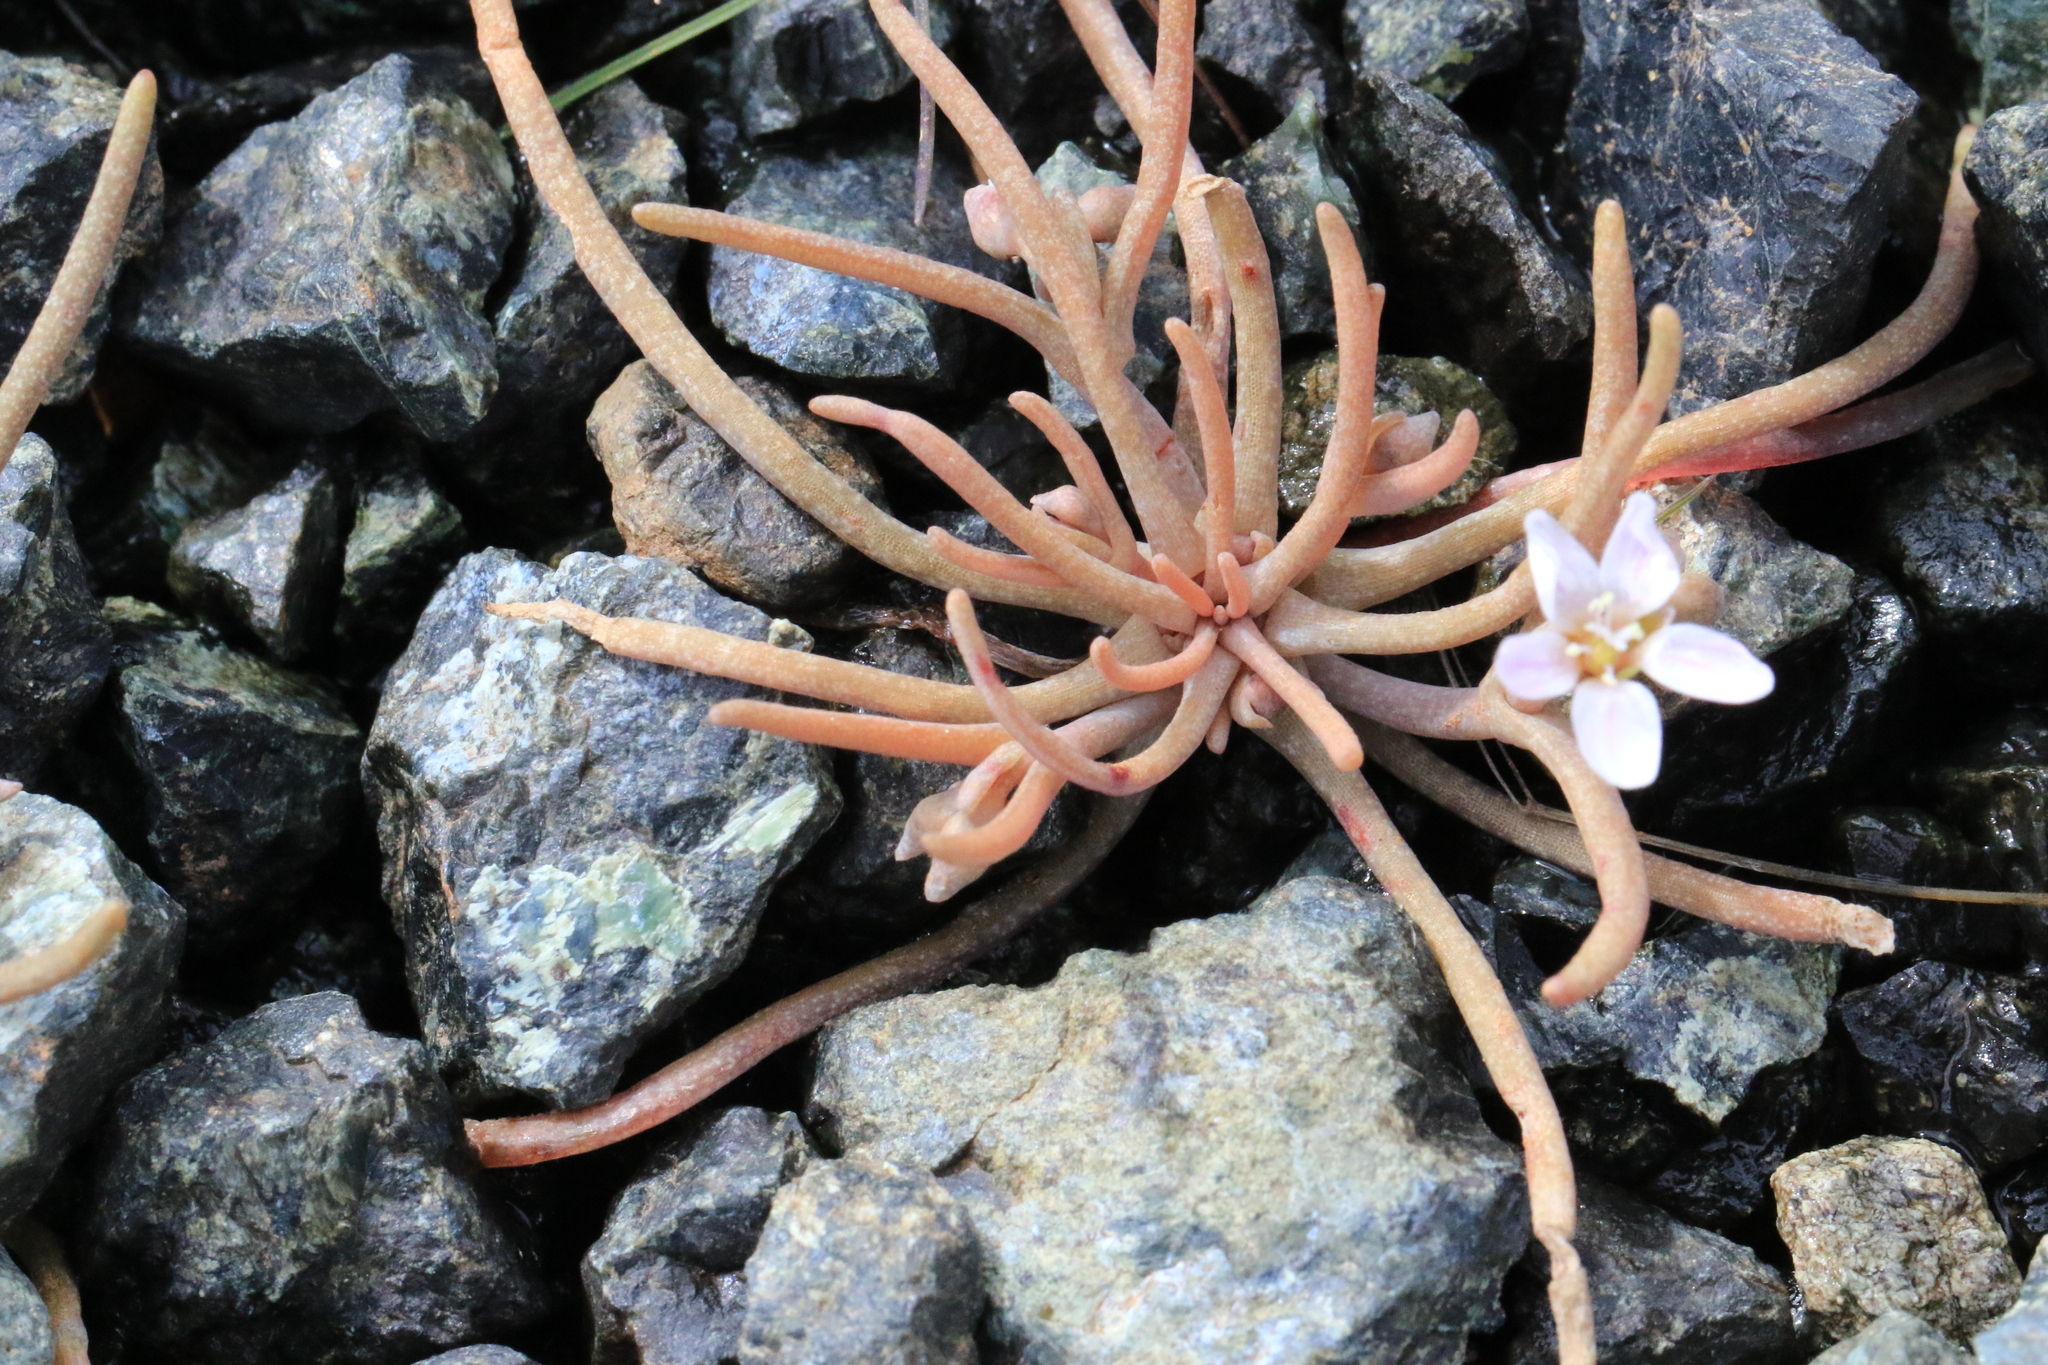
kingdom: Plantae
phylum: Tracheophyta
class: Magnoliopsida
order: Caryophyllales
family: Montiaceae
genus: Claytonia
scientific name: Claytonia exigua
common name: Pale spring beauty
